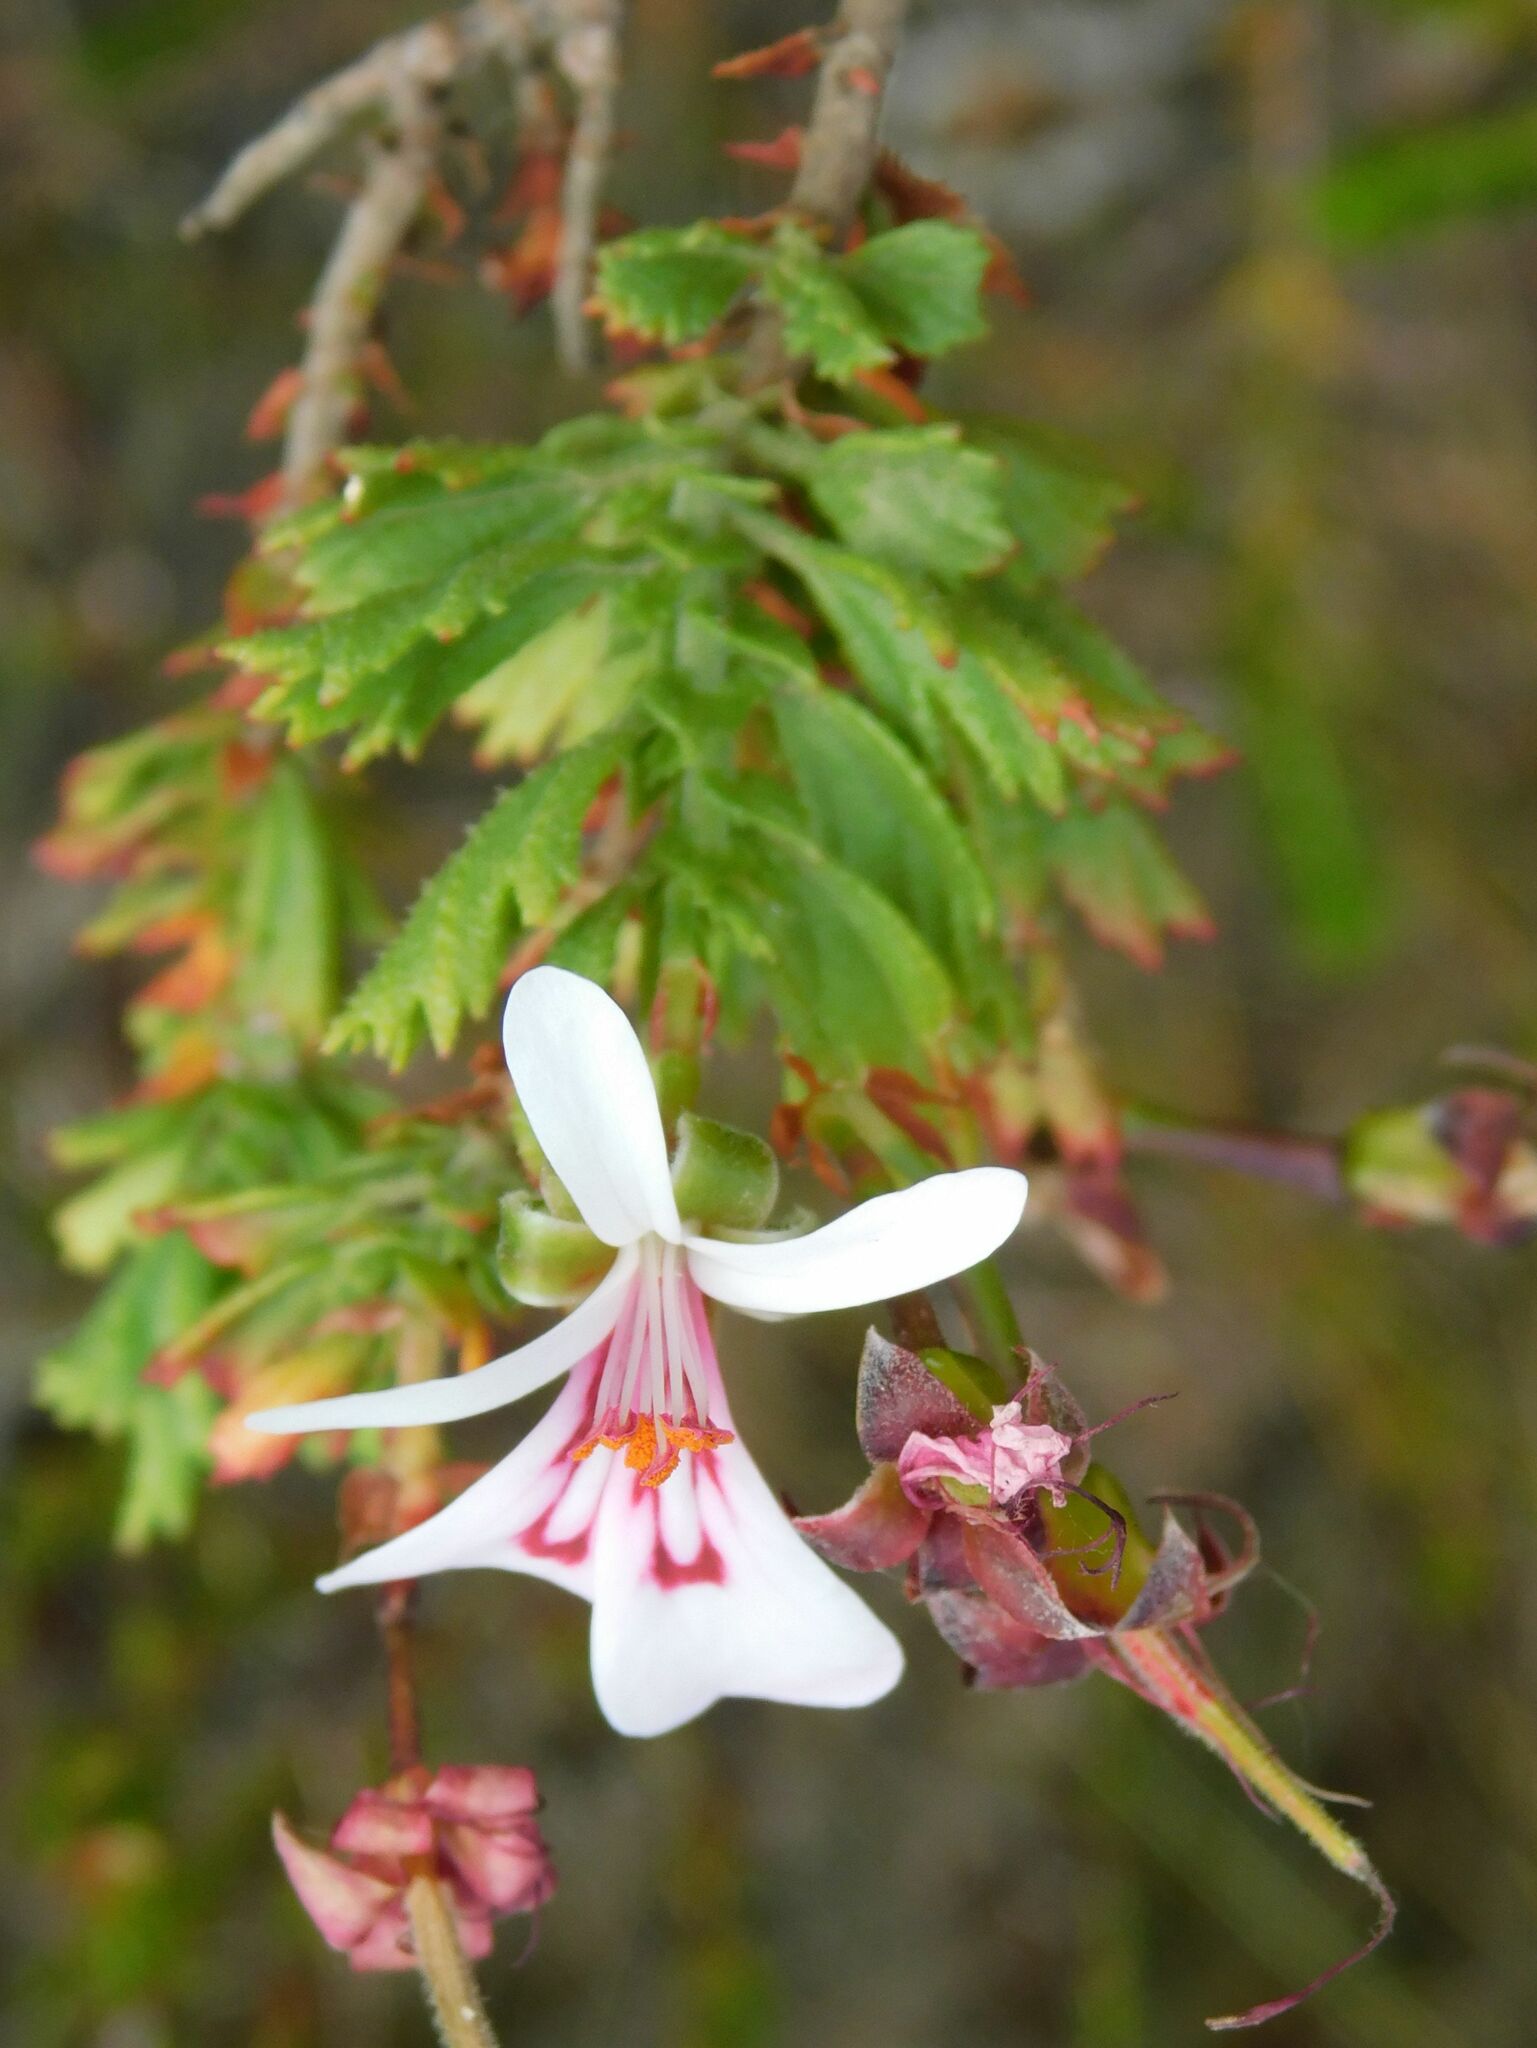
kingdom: Plantae
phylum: Tracheophyta
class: Magnoliopsida
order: Geraniales
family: Geraniaceae
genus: Pelargonium
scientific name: Pelargonium hermaniifolium
